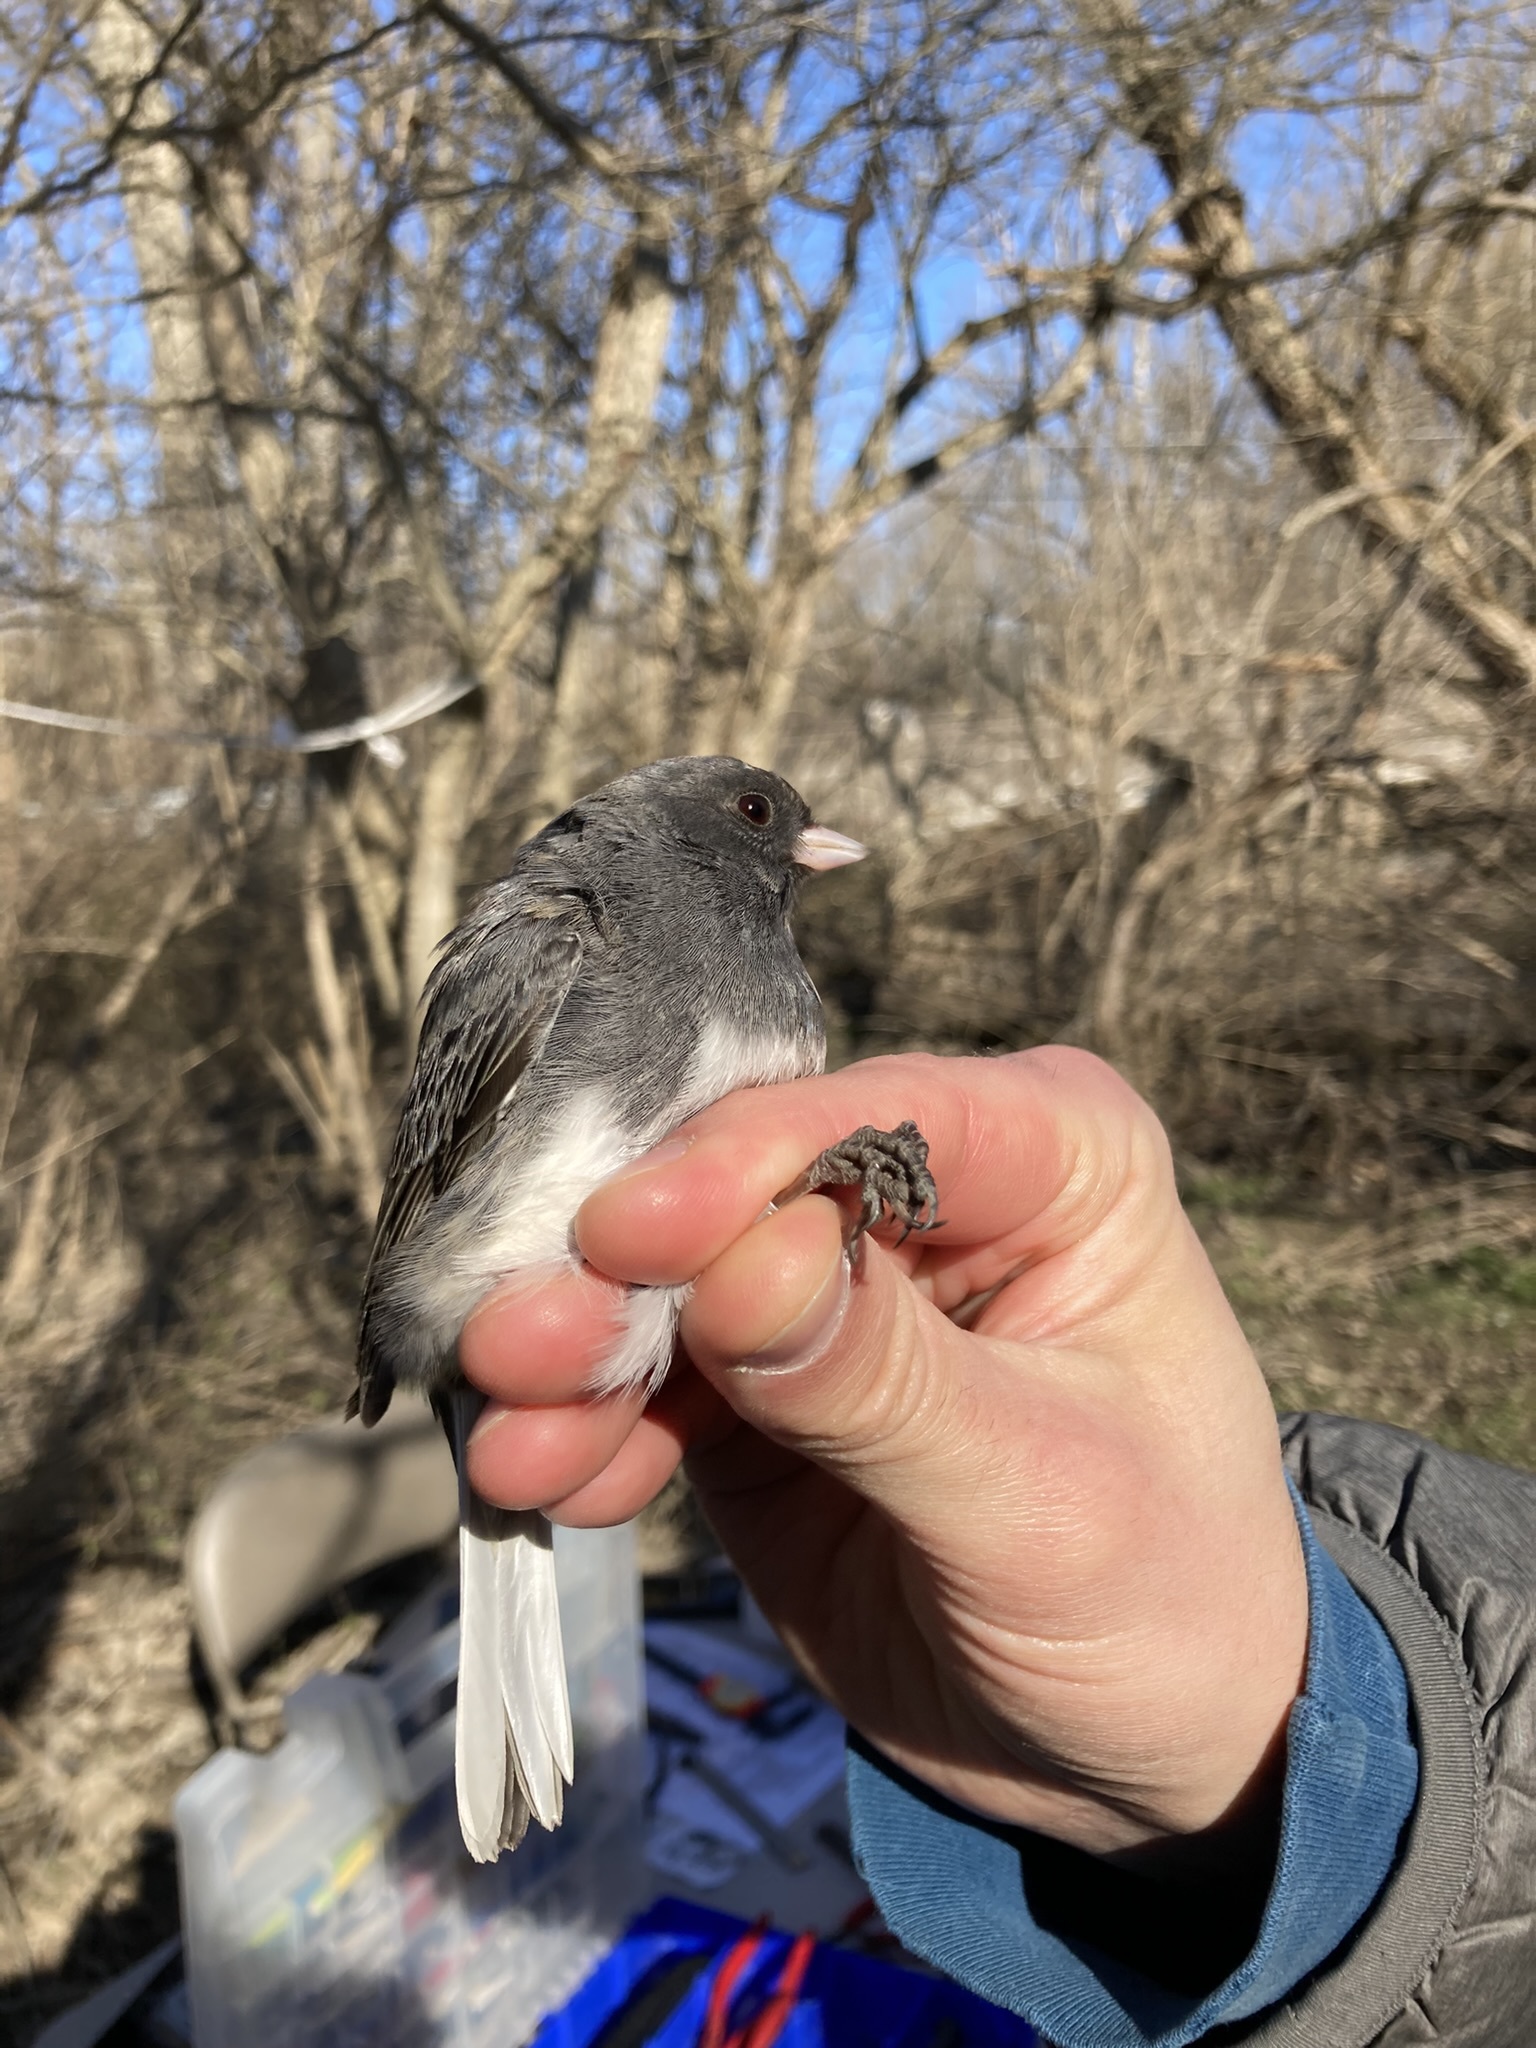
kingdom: Animalia
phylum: Chordata
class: Aves
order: Passeriformes
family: Passerellidae
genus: Junco
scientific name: Junco hyemalis
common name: Dark-eyed junco
